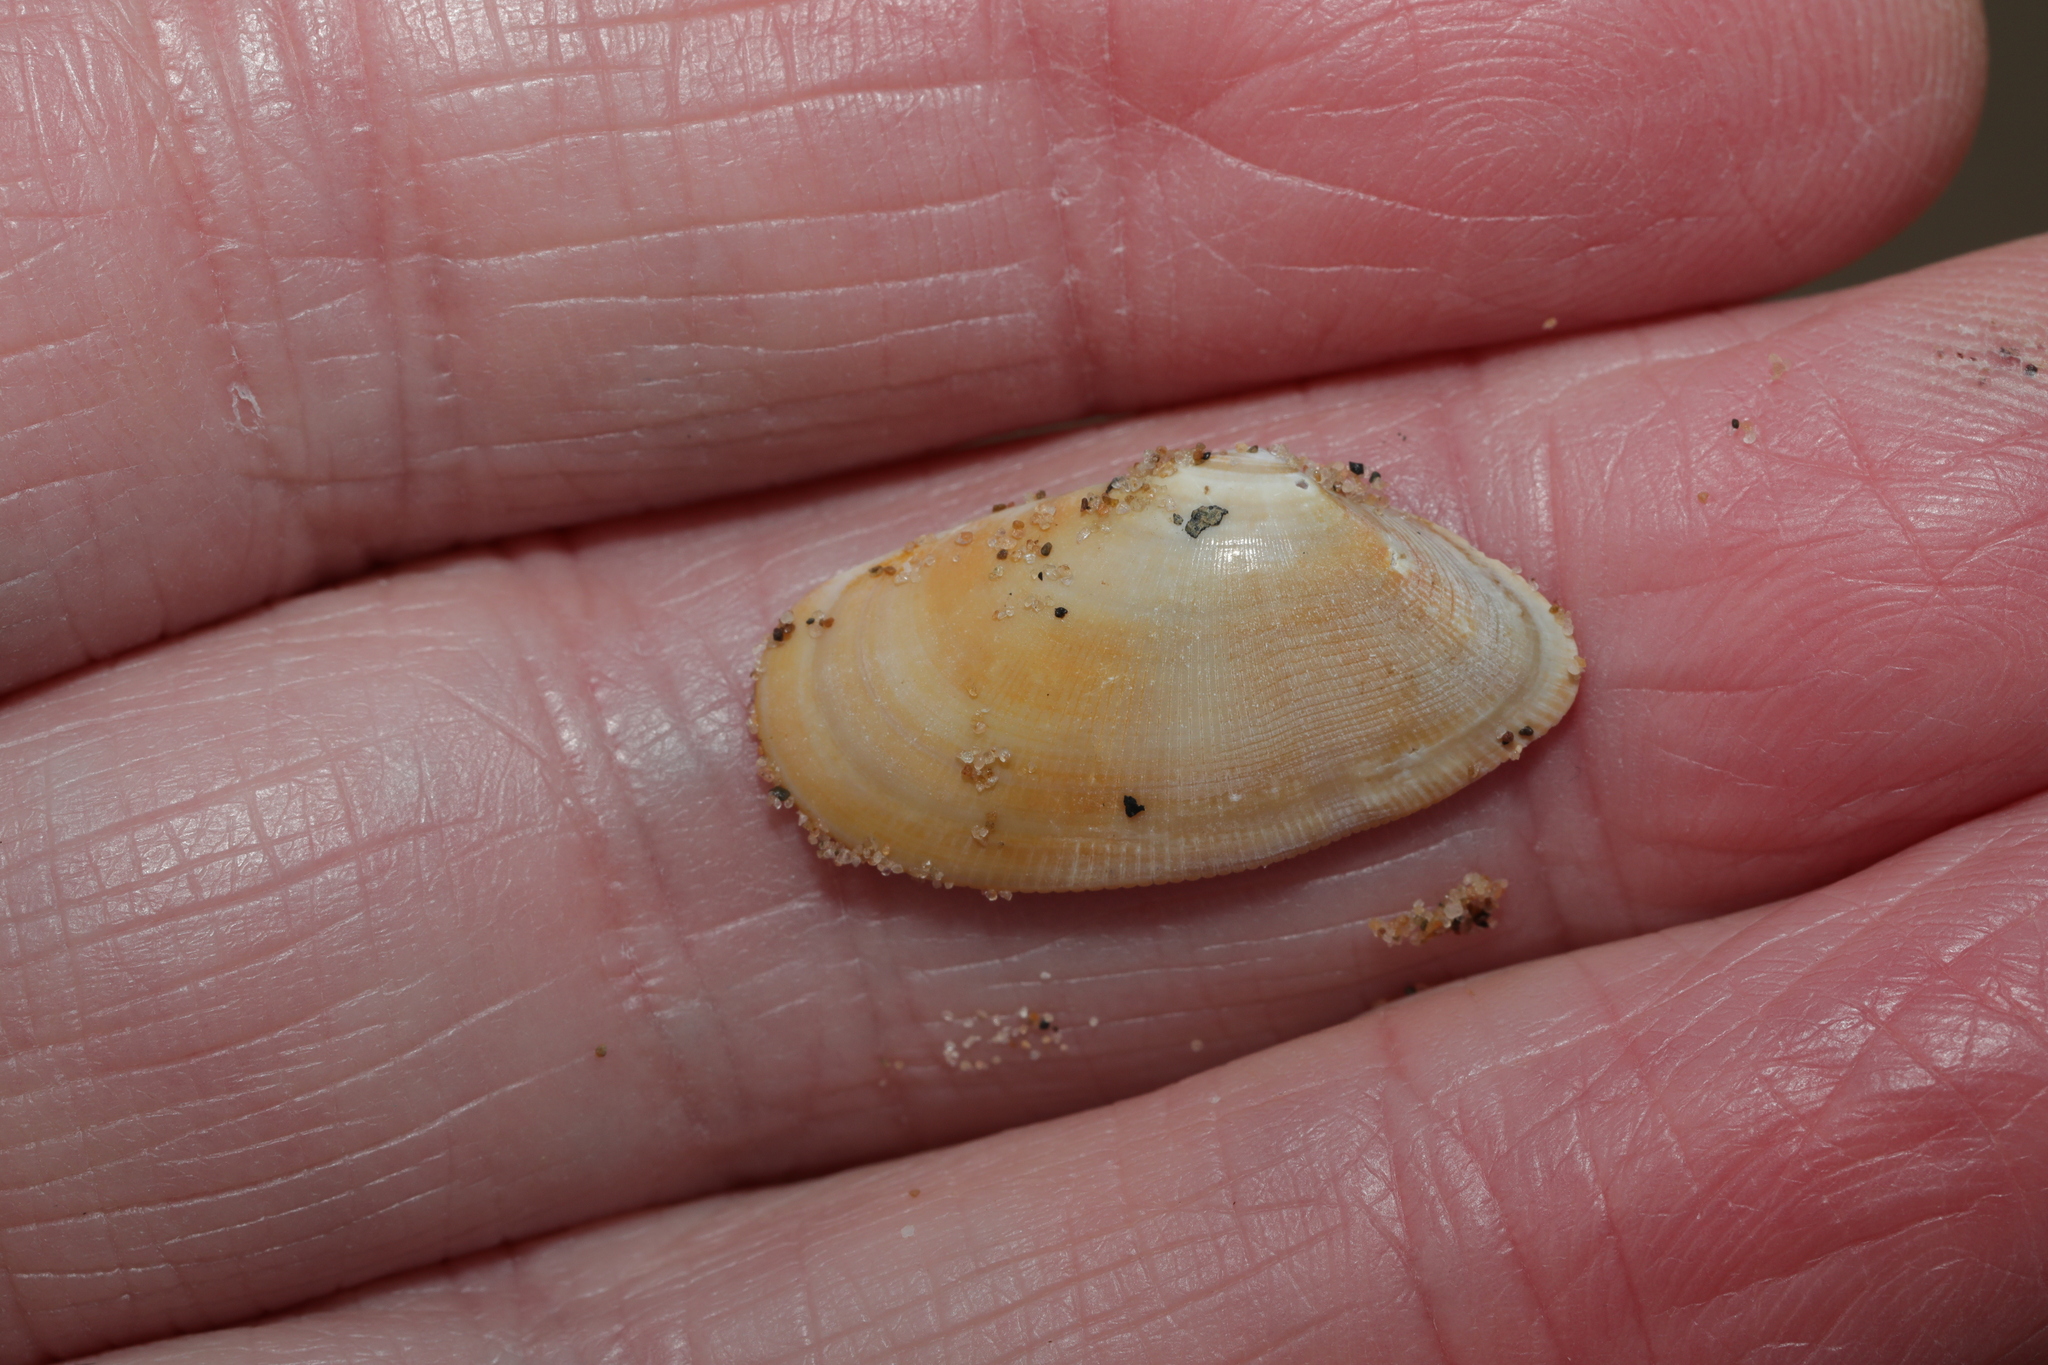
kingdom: Animalia
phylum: Mollusca
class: Bivalvia
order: Cardiida
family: Donacidae
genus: Donax
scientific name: Donax vittatus
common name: Banded wedge-shell
